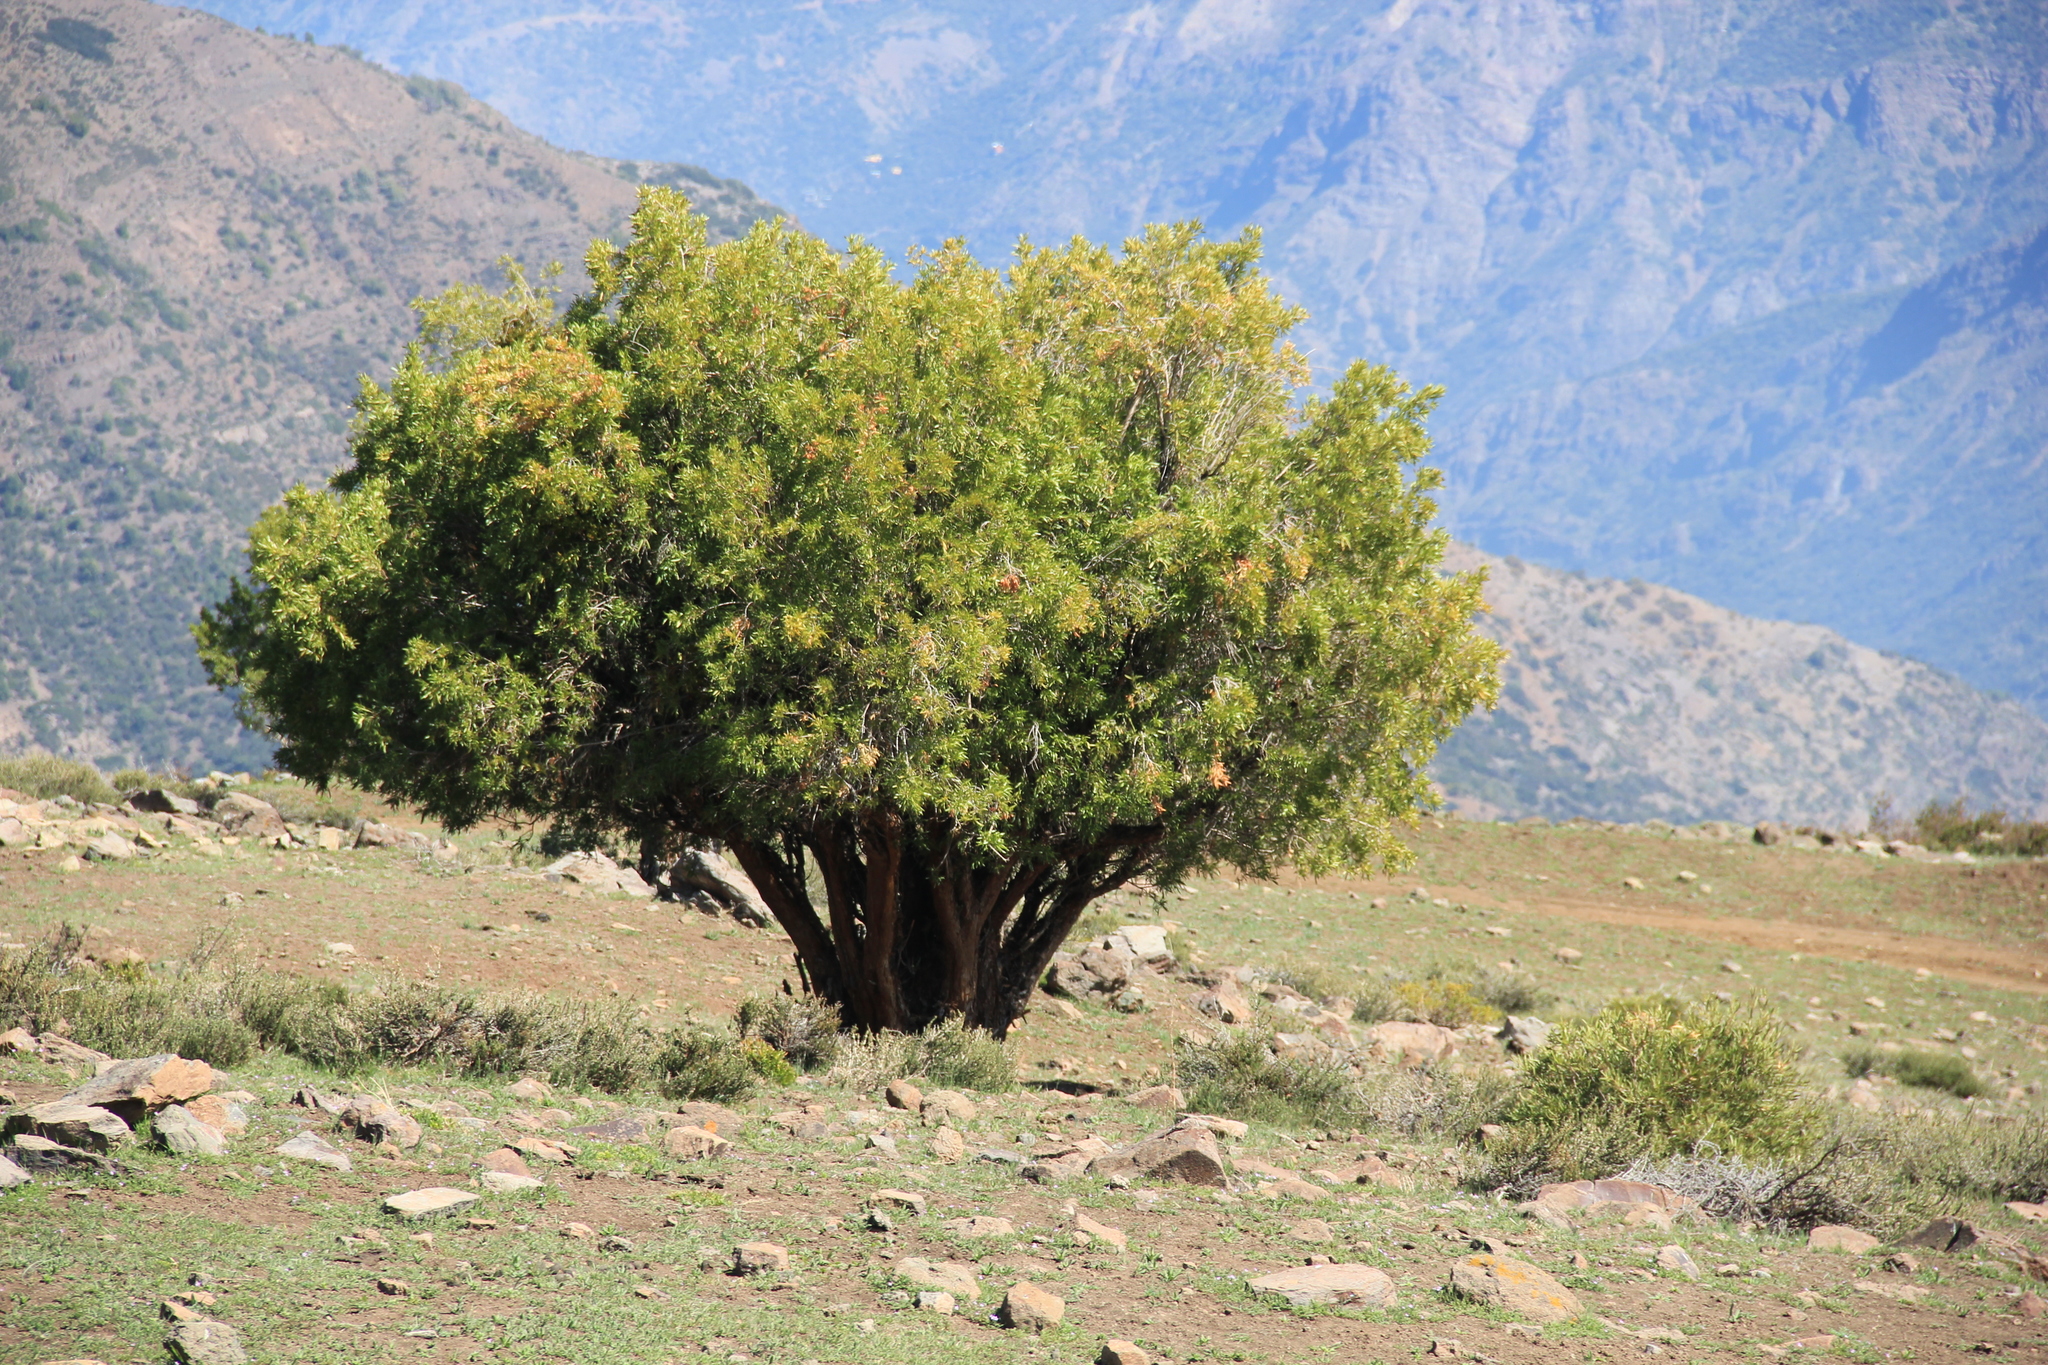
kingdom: Plantae
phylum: Tracheophyta
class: Magnoliopsida
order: Rosales
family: Rosaceae
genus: Kageneckia
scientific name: Kageneckia angustifolia
